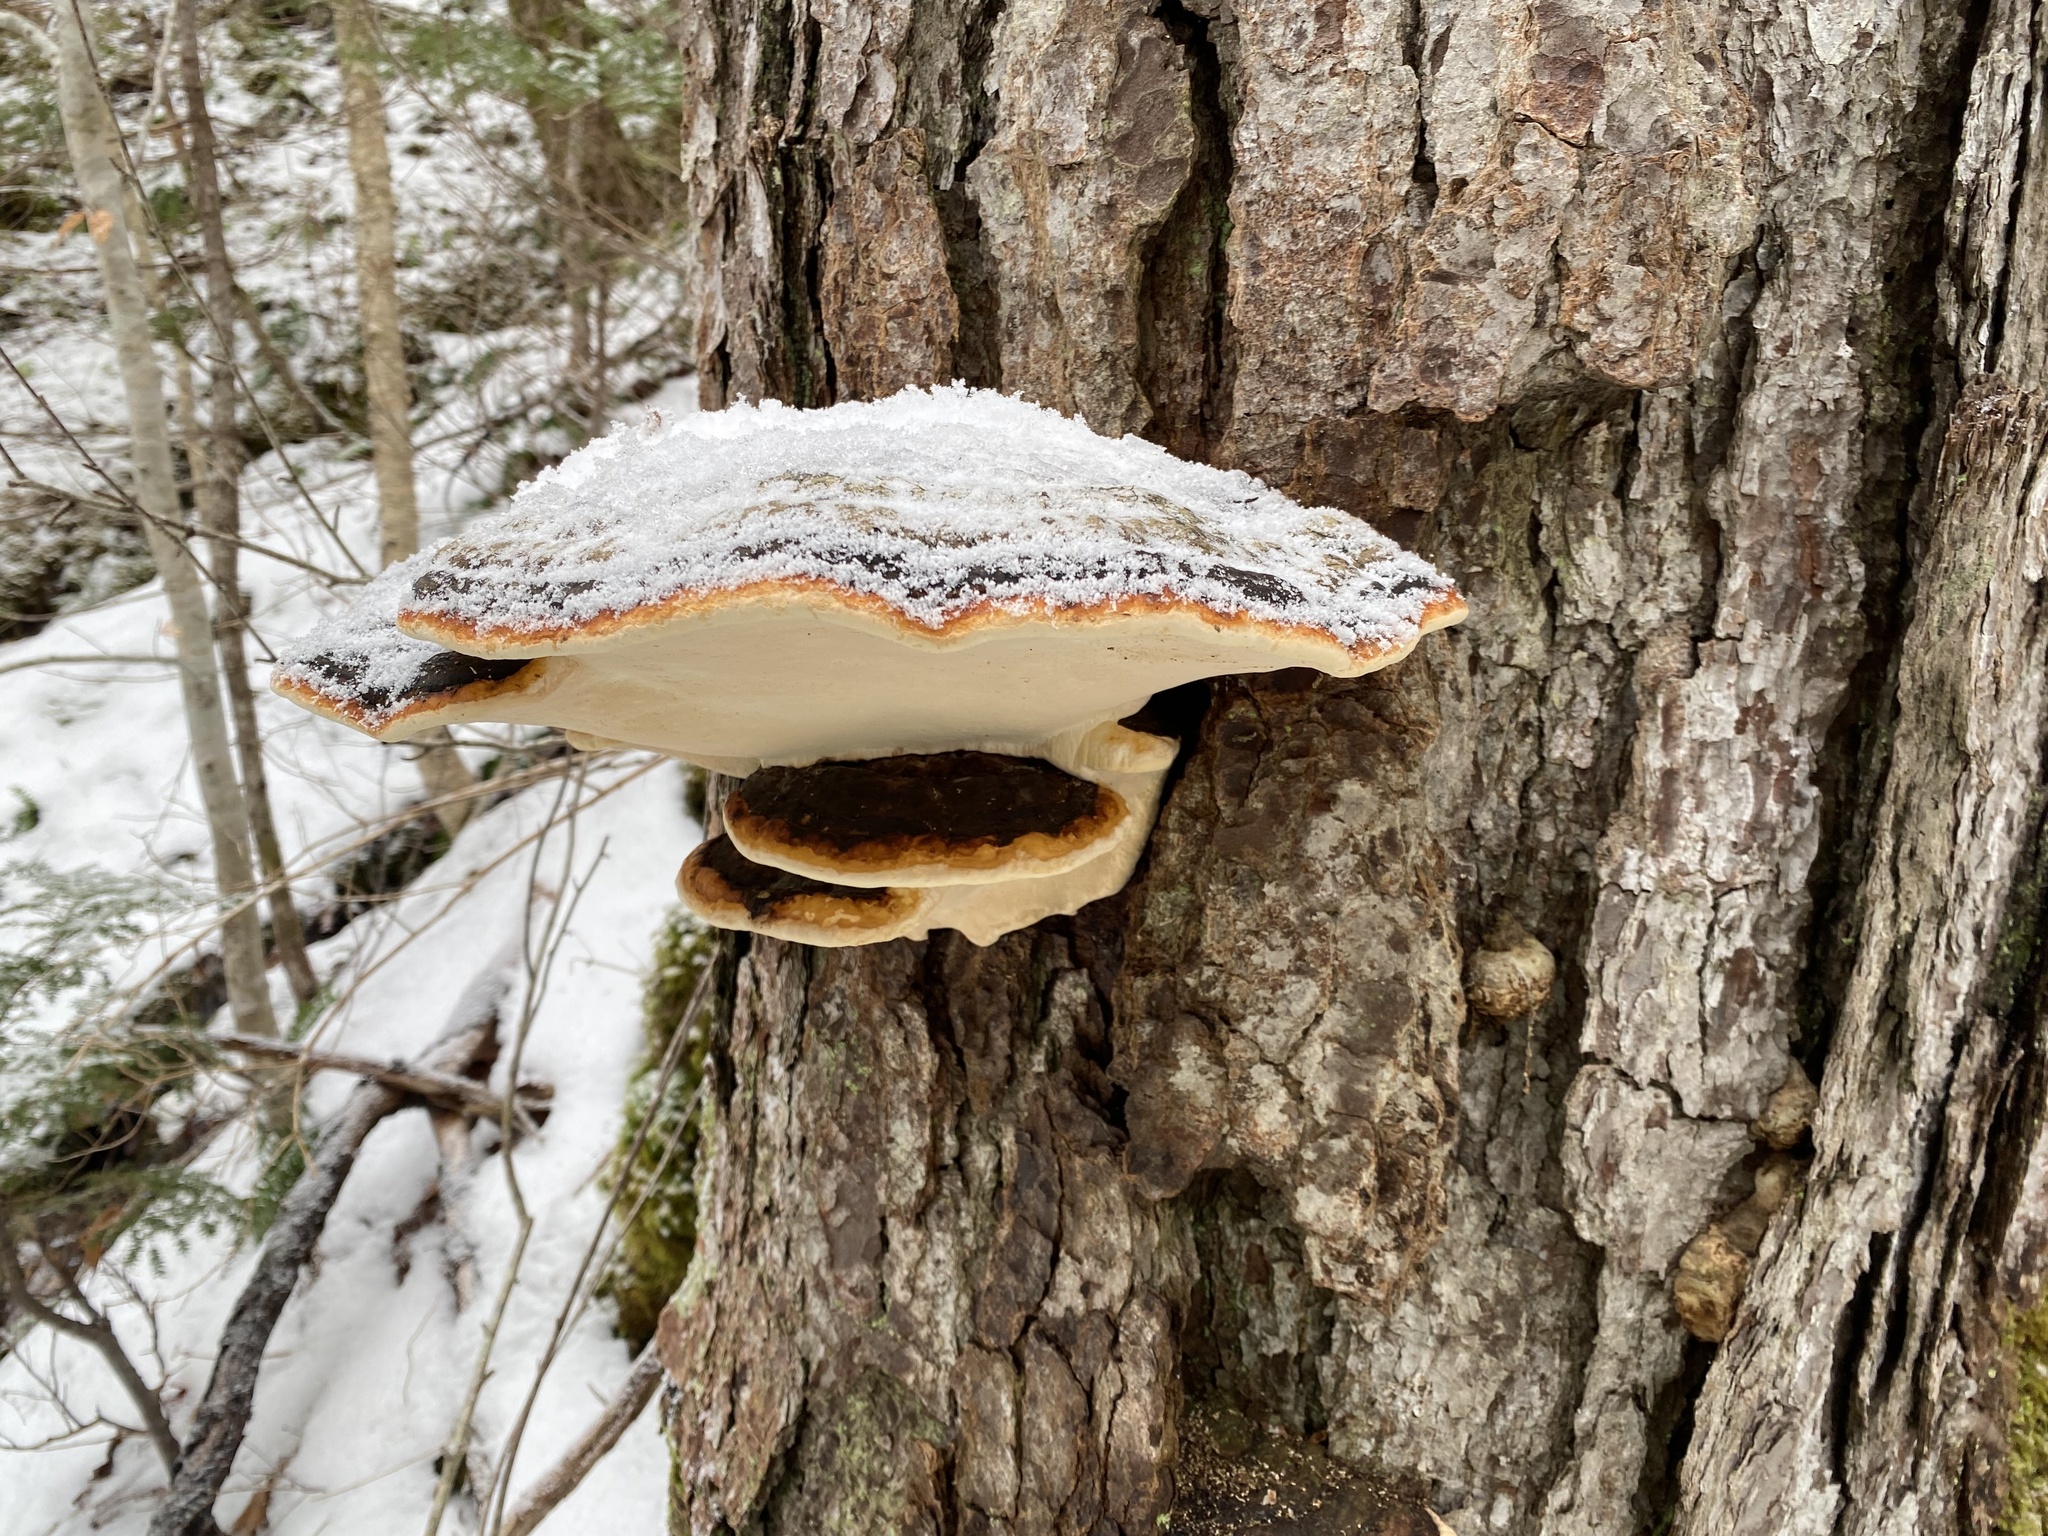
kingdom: Fungi
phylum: Basidiomycota
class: Agaricomycetes
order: Polyporales
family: Fomitopsidaceae
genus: Fomitopsis
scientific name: Fomitopsis mounceae
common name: Northern red belt
